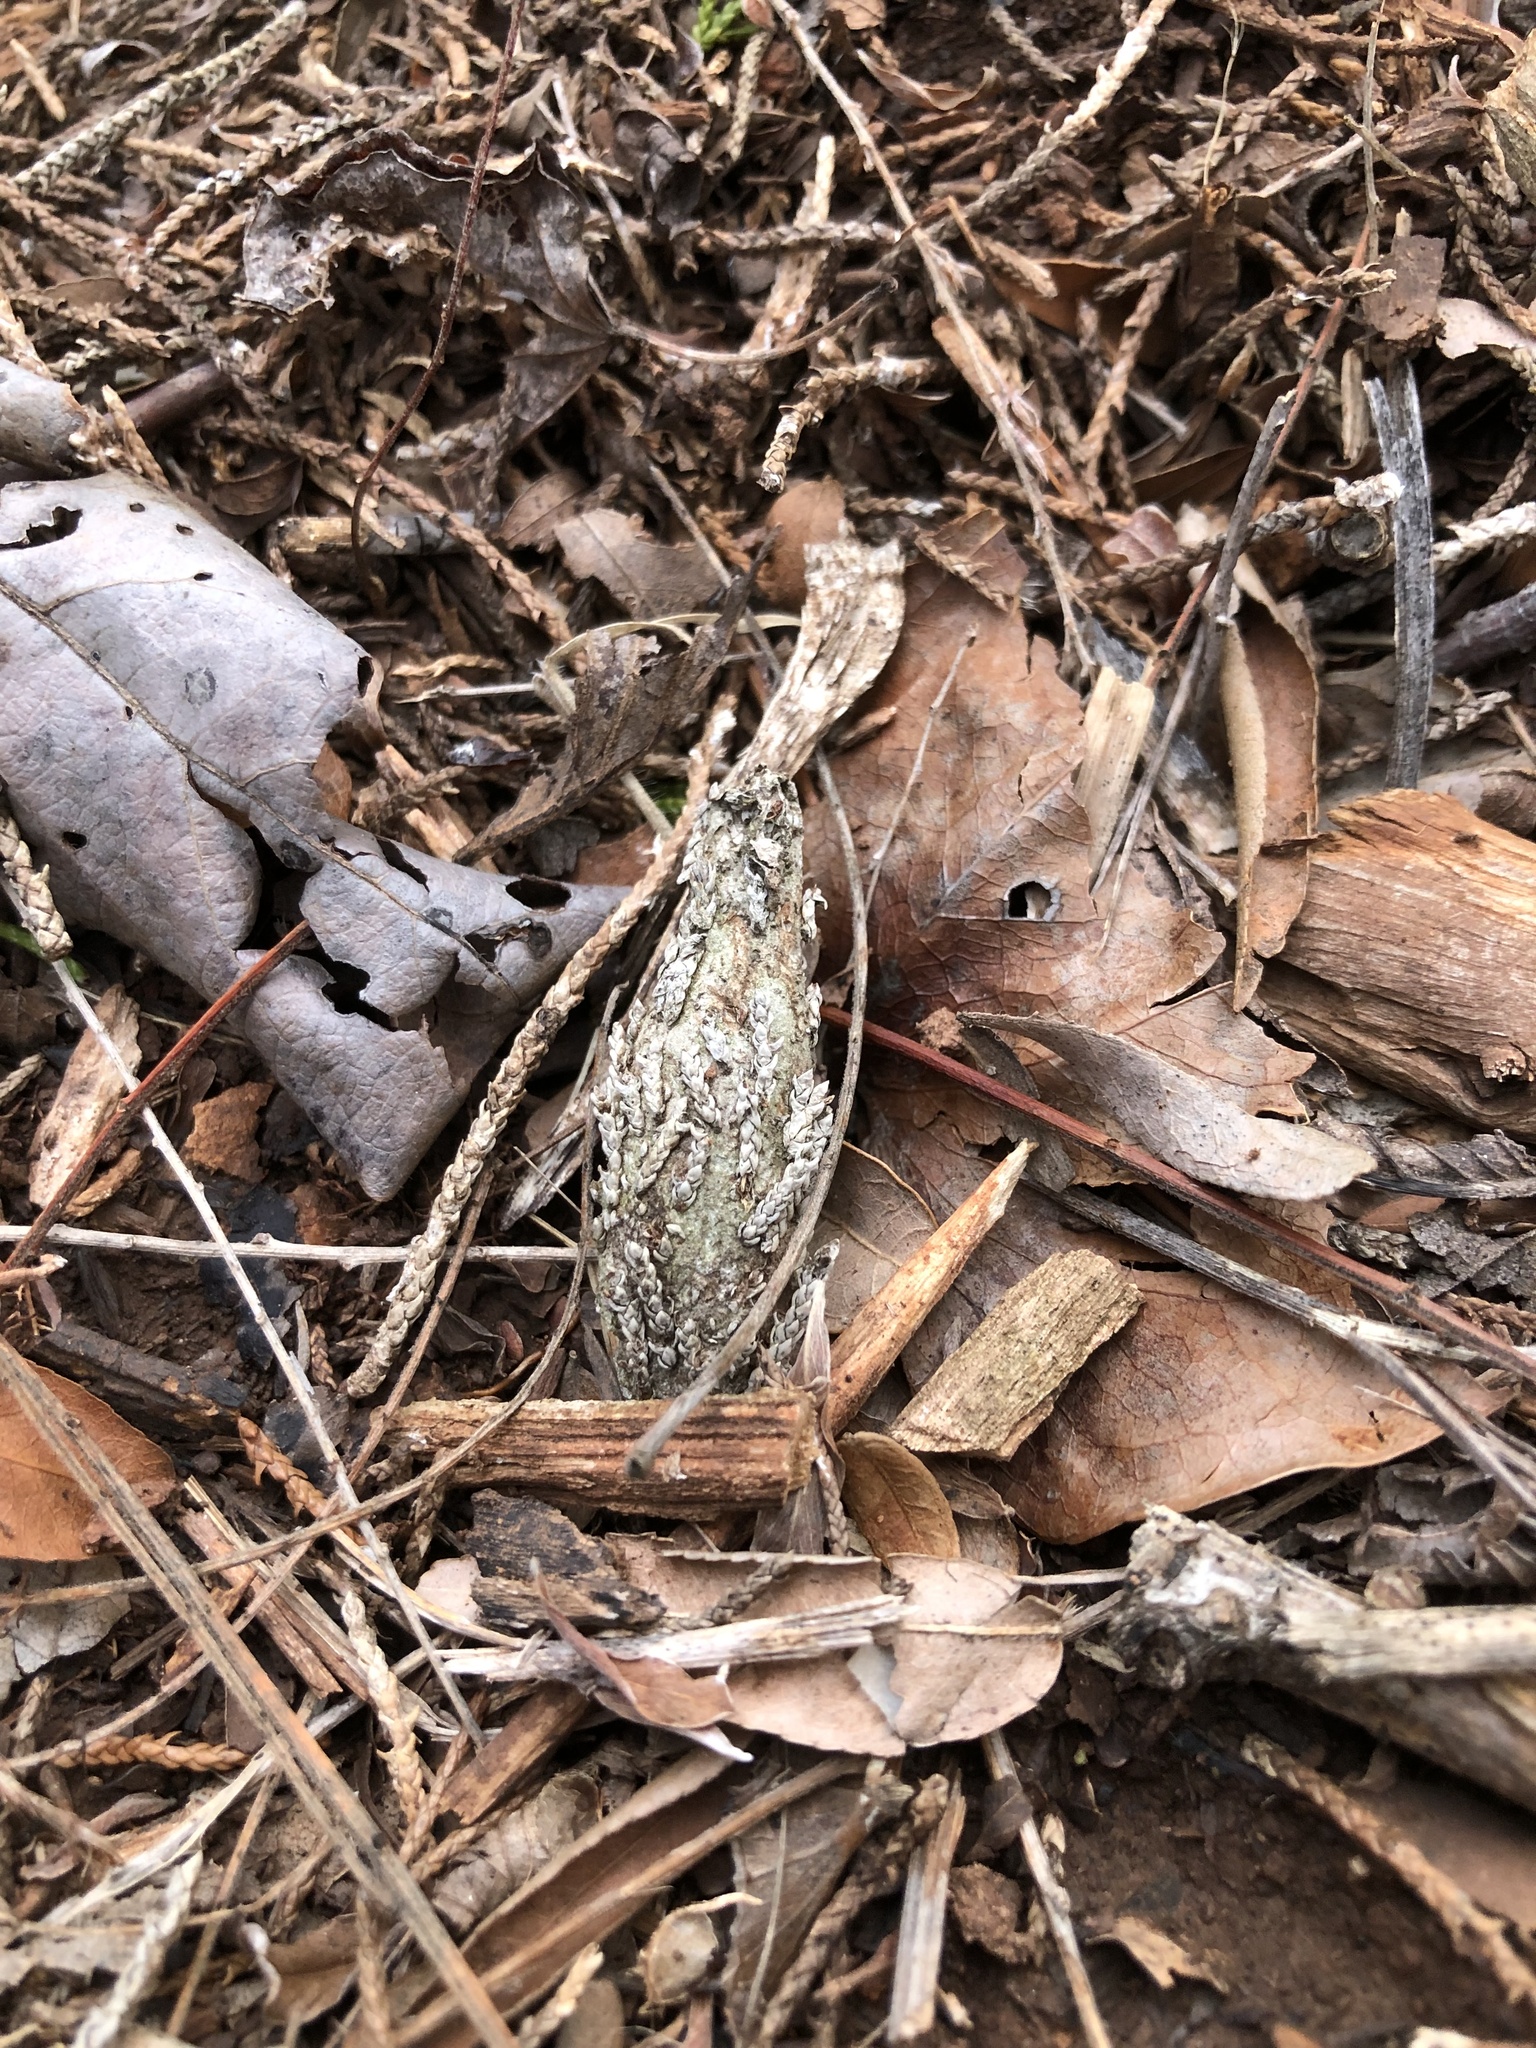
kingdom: Animalia
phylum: Arthropoda
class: Insecta
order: Lepidoptera
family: Psychidae
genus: Thyridopteryx
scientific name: Thyridopteryx ephemeraeformis
